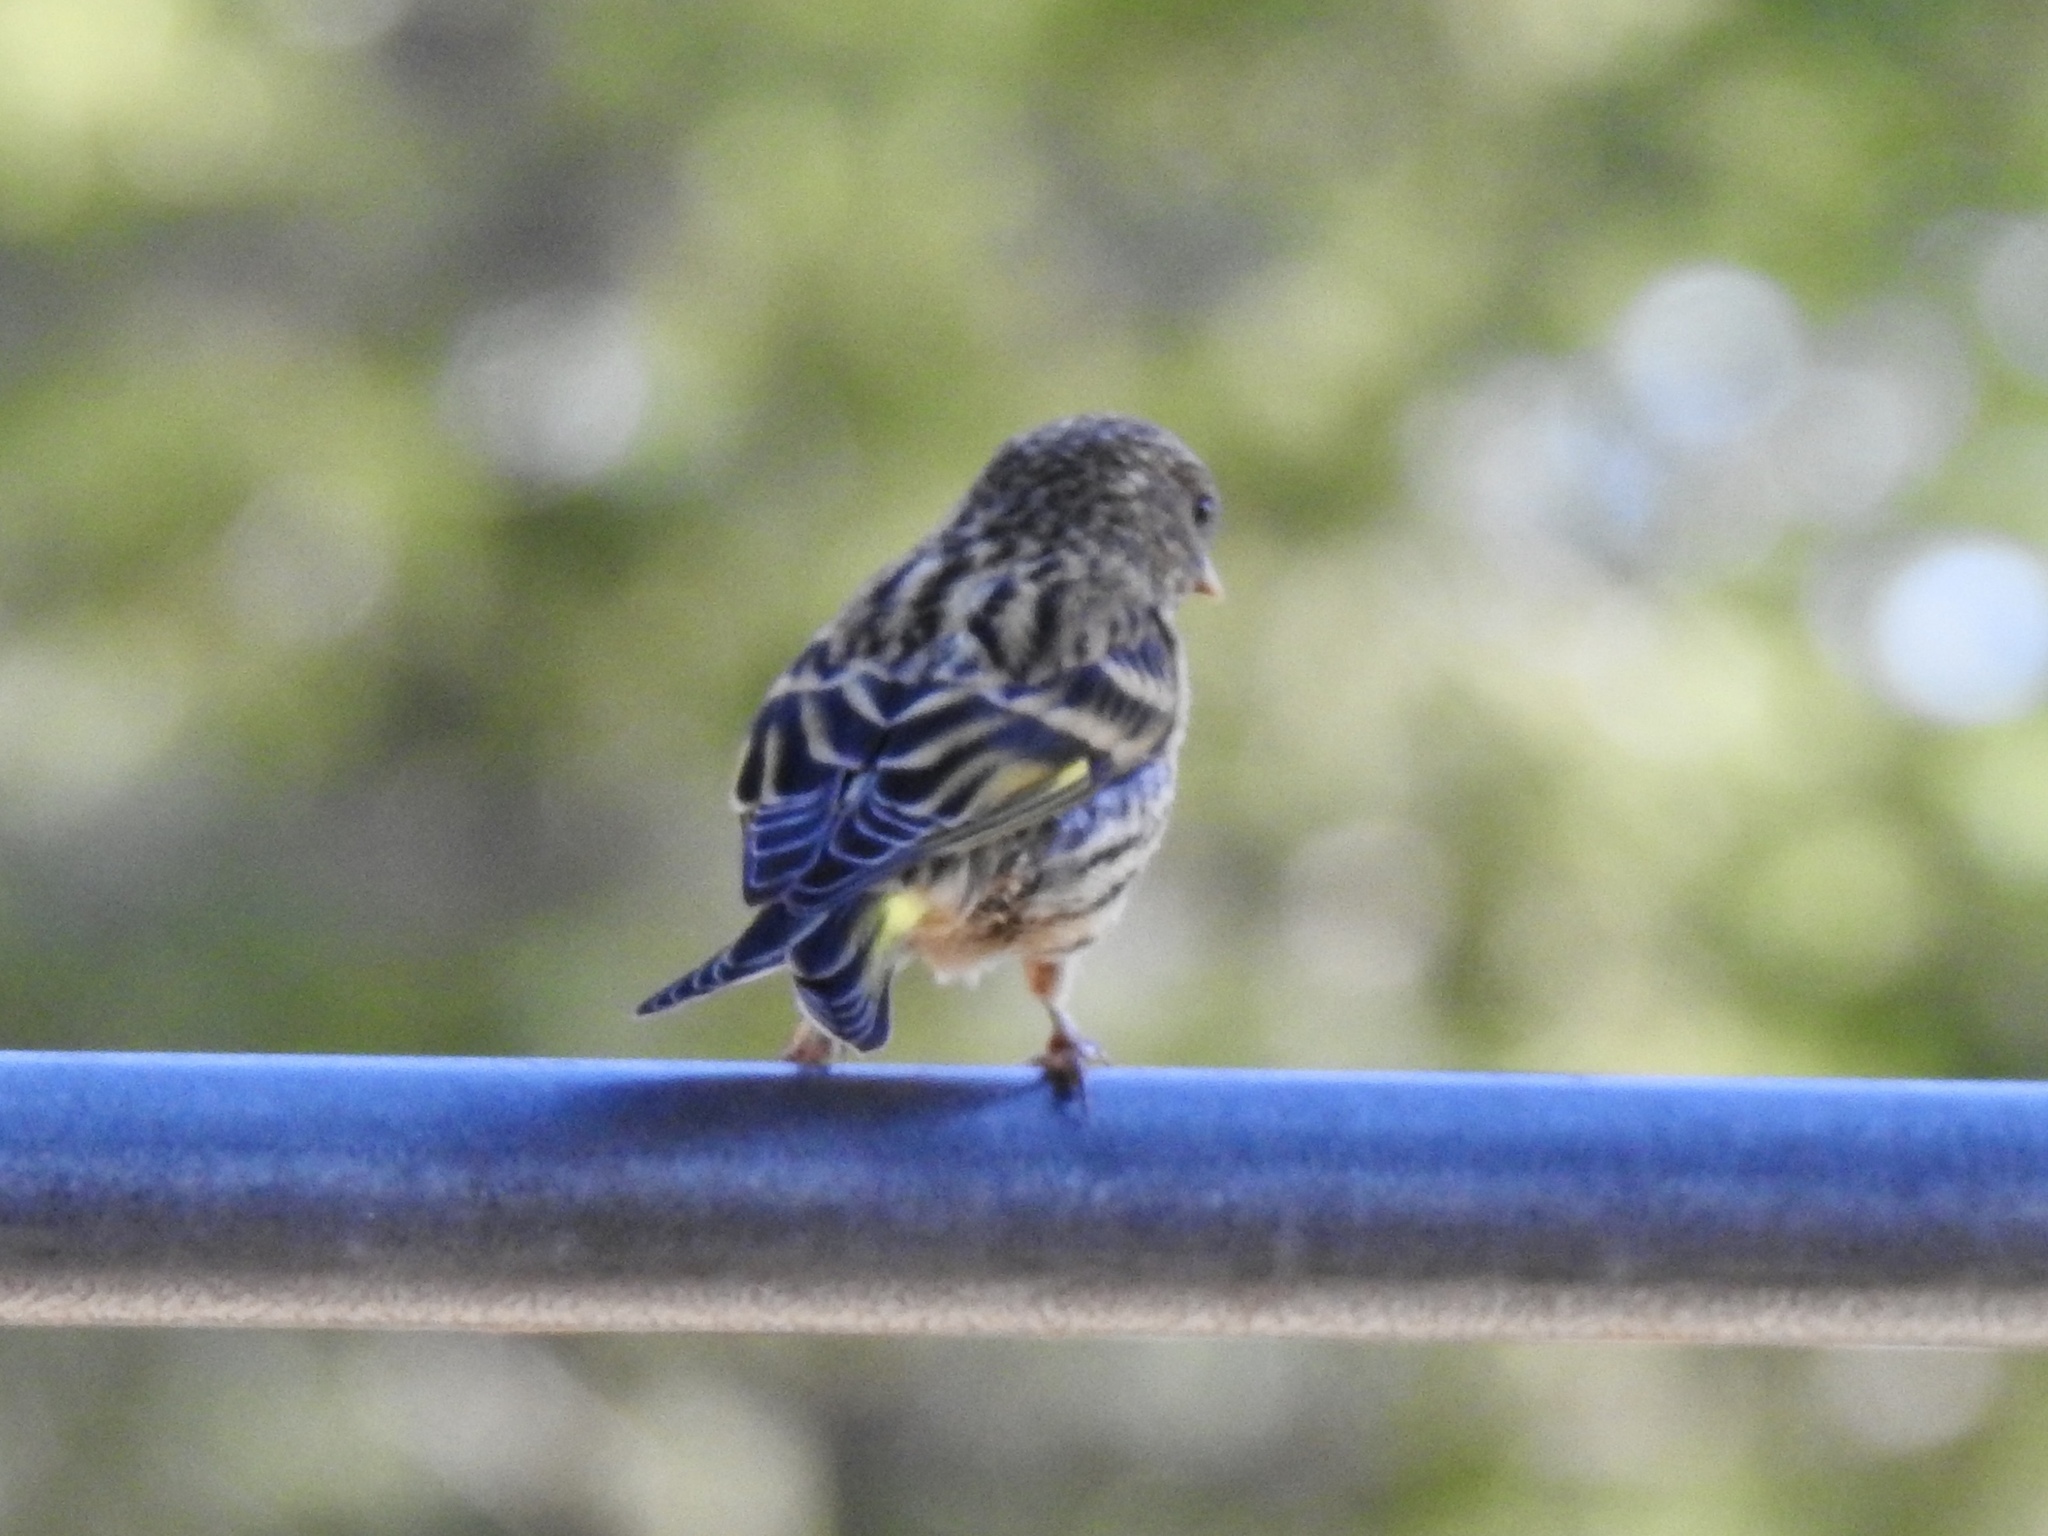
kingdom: Animalia
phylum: Chordata
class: Aves
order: Passeriformes
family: Fringillidae
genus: Spinus
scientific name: Spinus pinus
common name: Pine siskin
